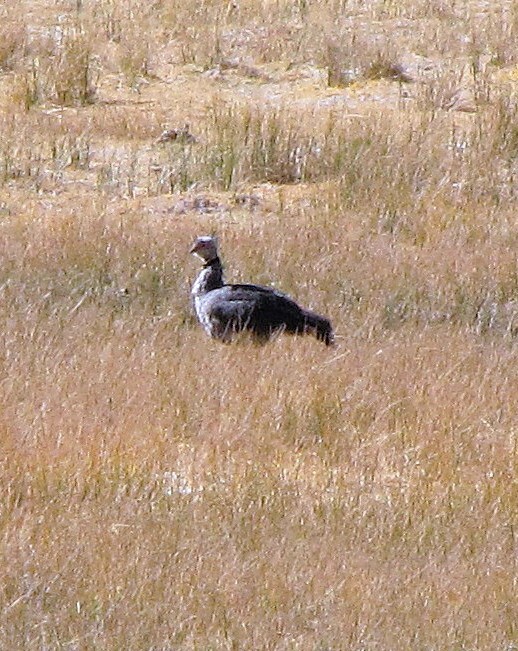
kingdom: Animalia
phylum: Chordata
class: Aves
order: Anseriformes
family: Anhimidae
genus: Chauna
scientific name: Chauna torquata
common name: Southern screamer
